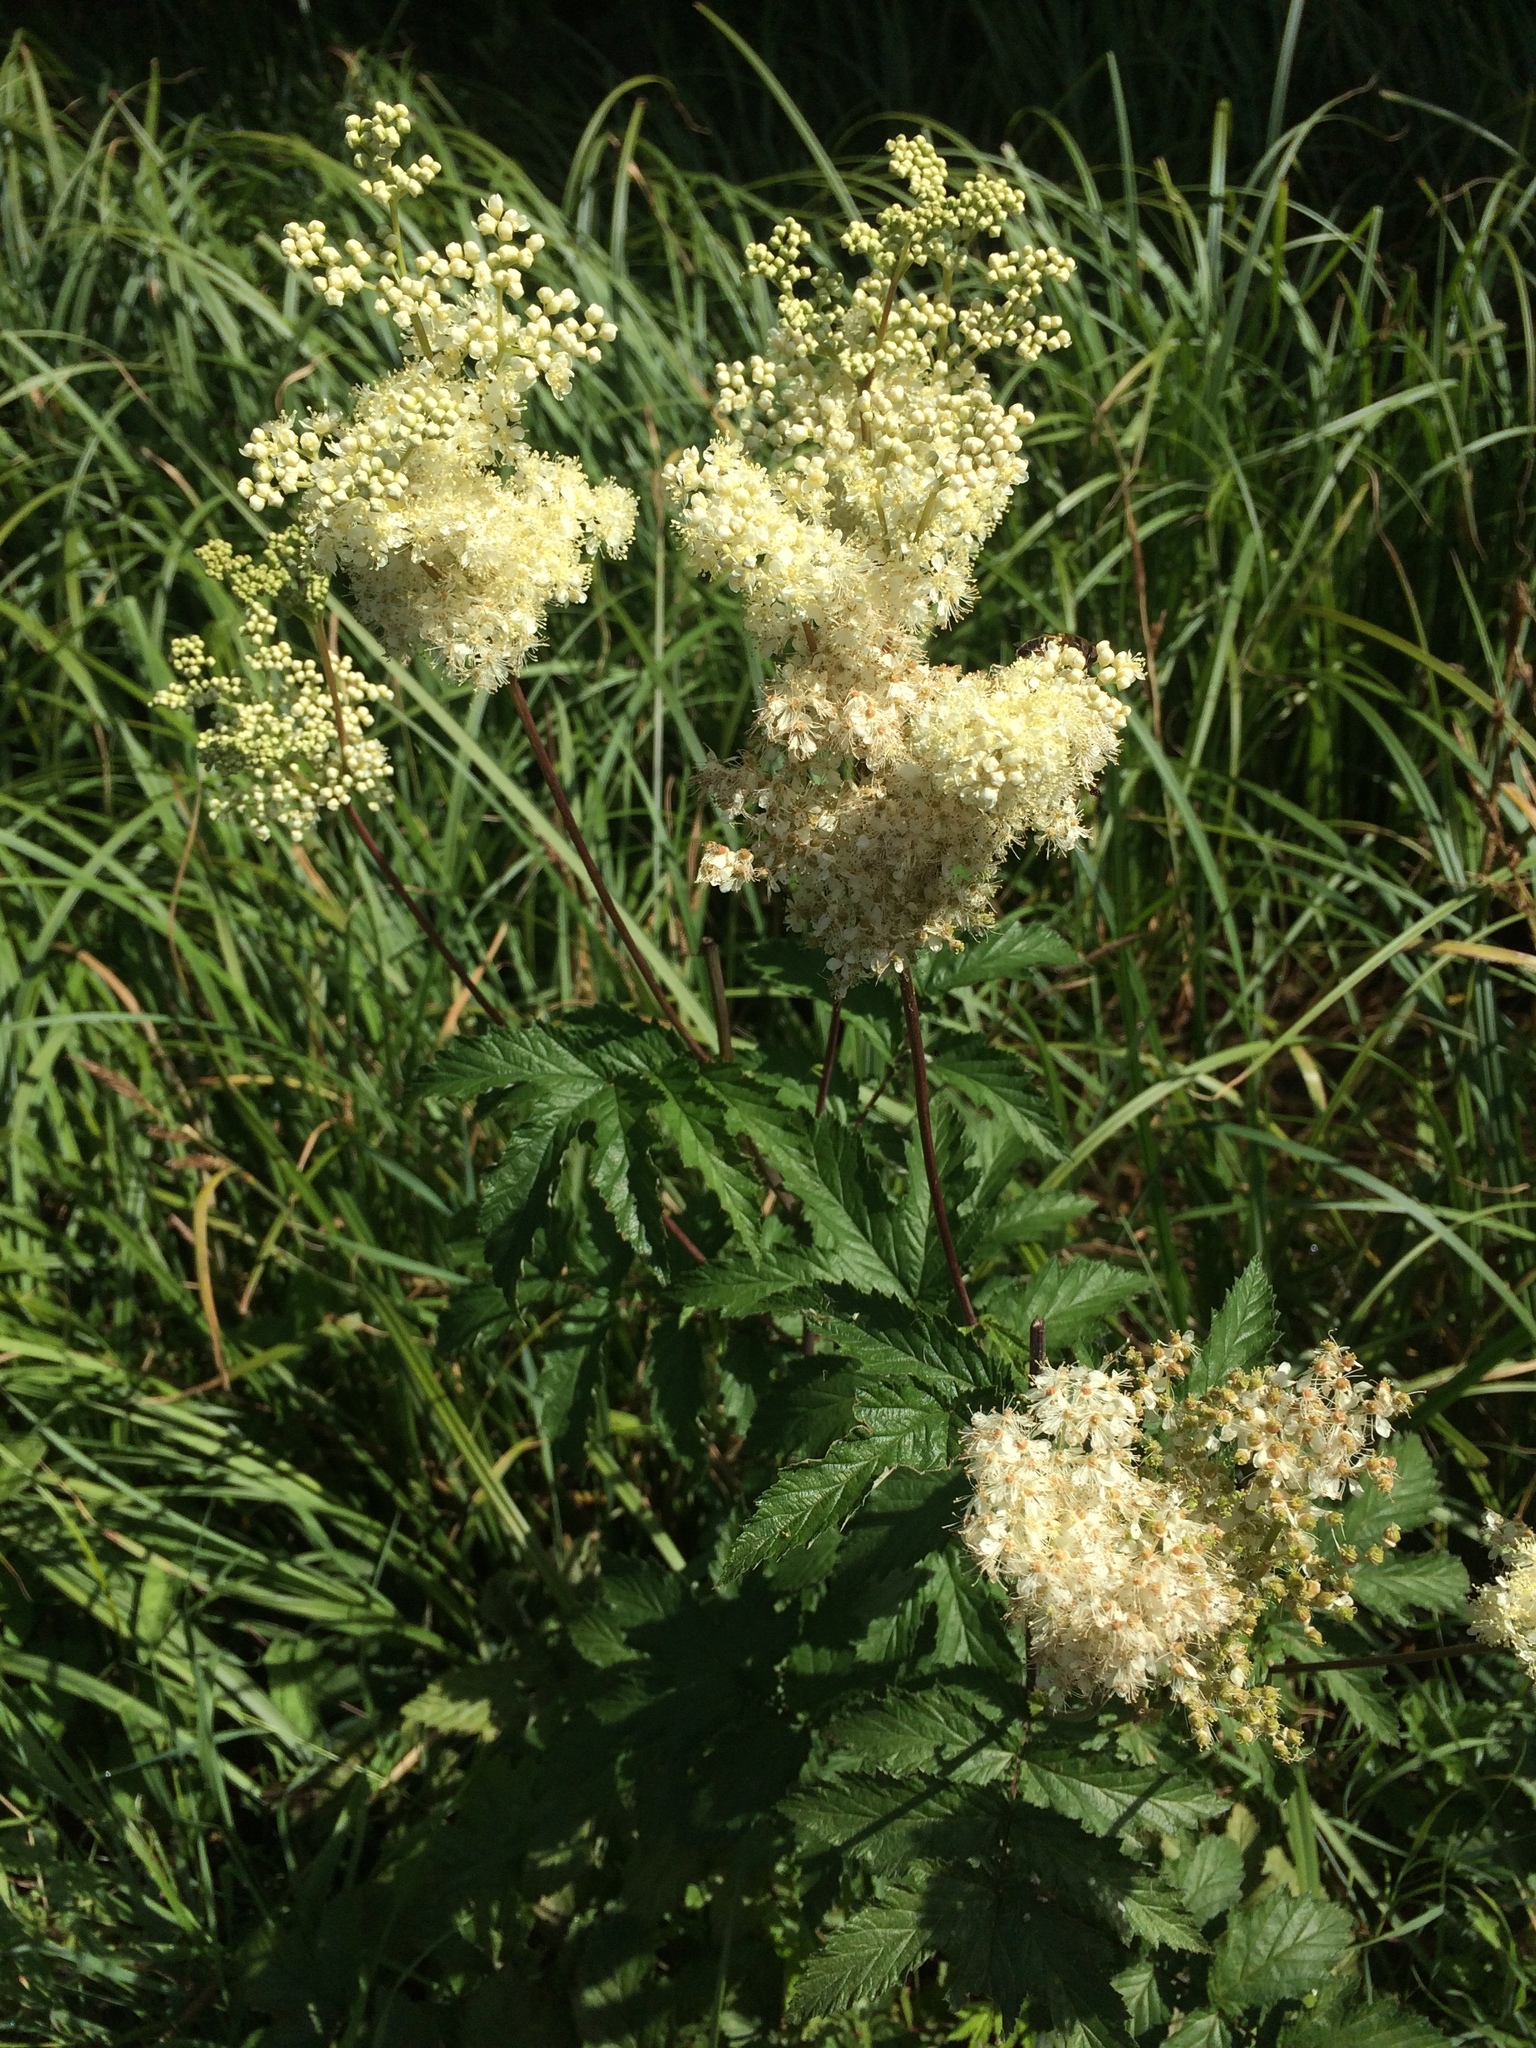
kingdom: Plantae
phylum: Tracheophyta
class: Magnoliopsida
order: Rosales
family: Rosaceae
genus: Filipendula
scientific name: Filipendula ulmaria
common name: Meadowsweet
